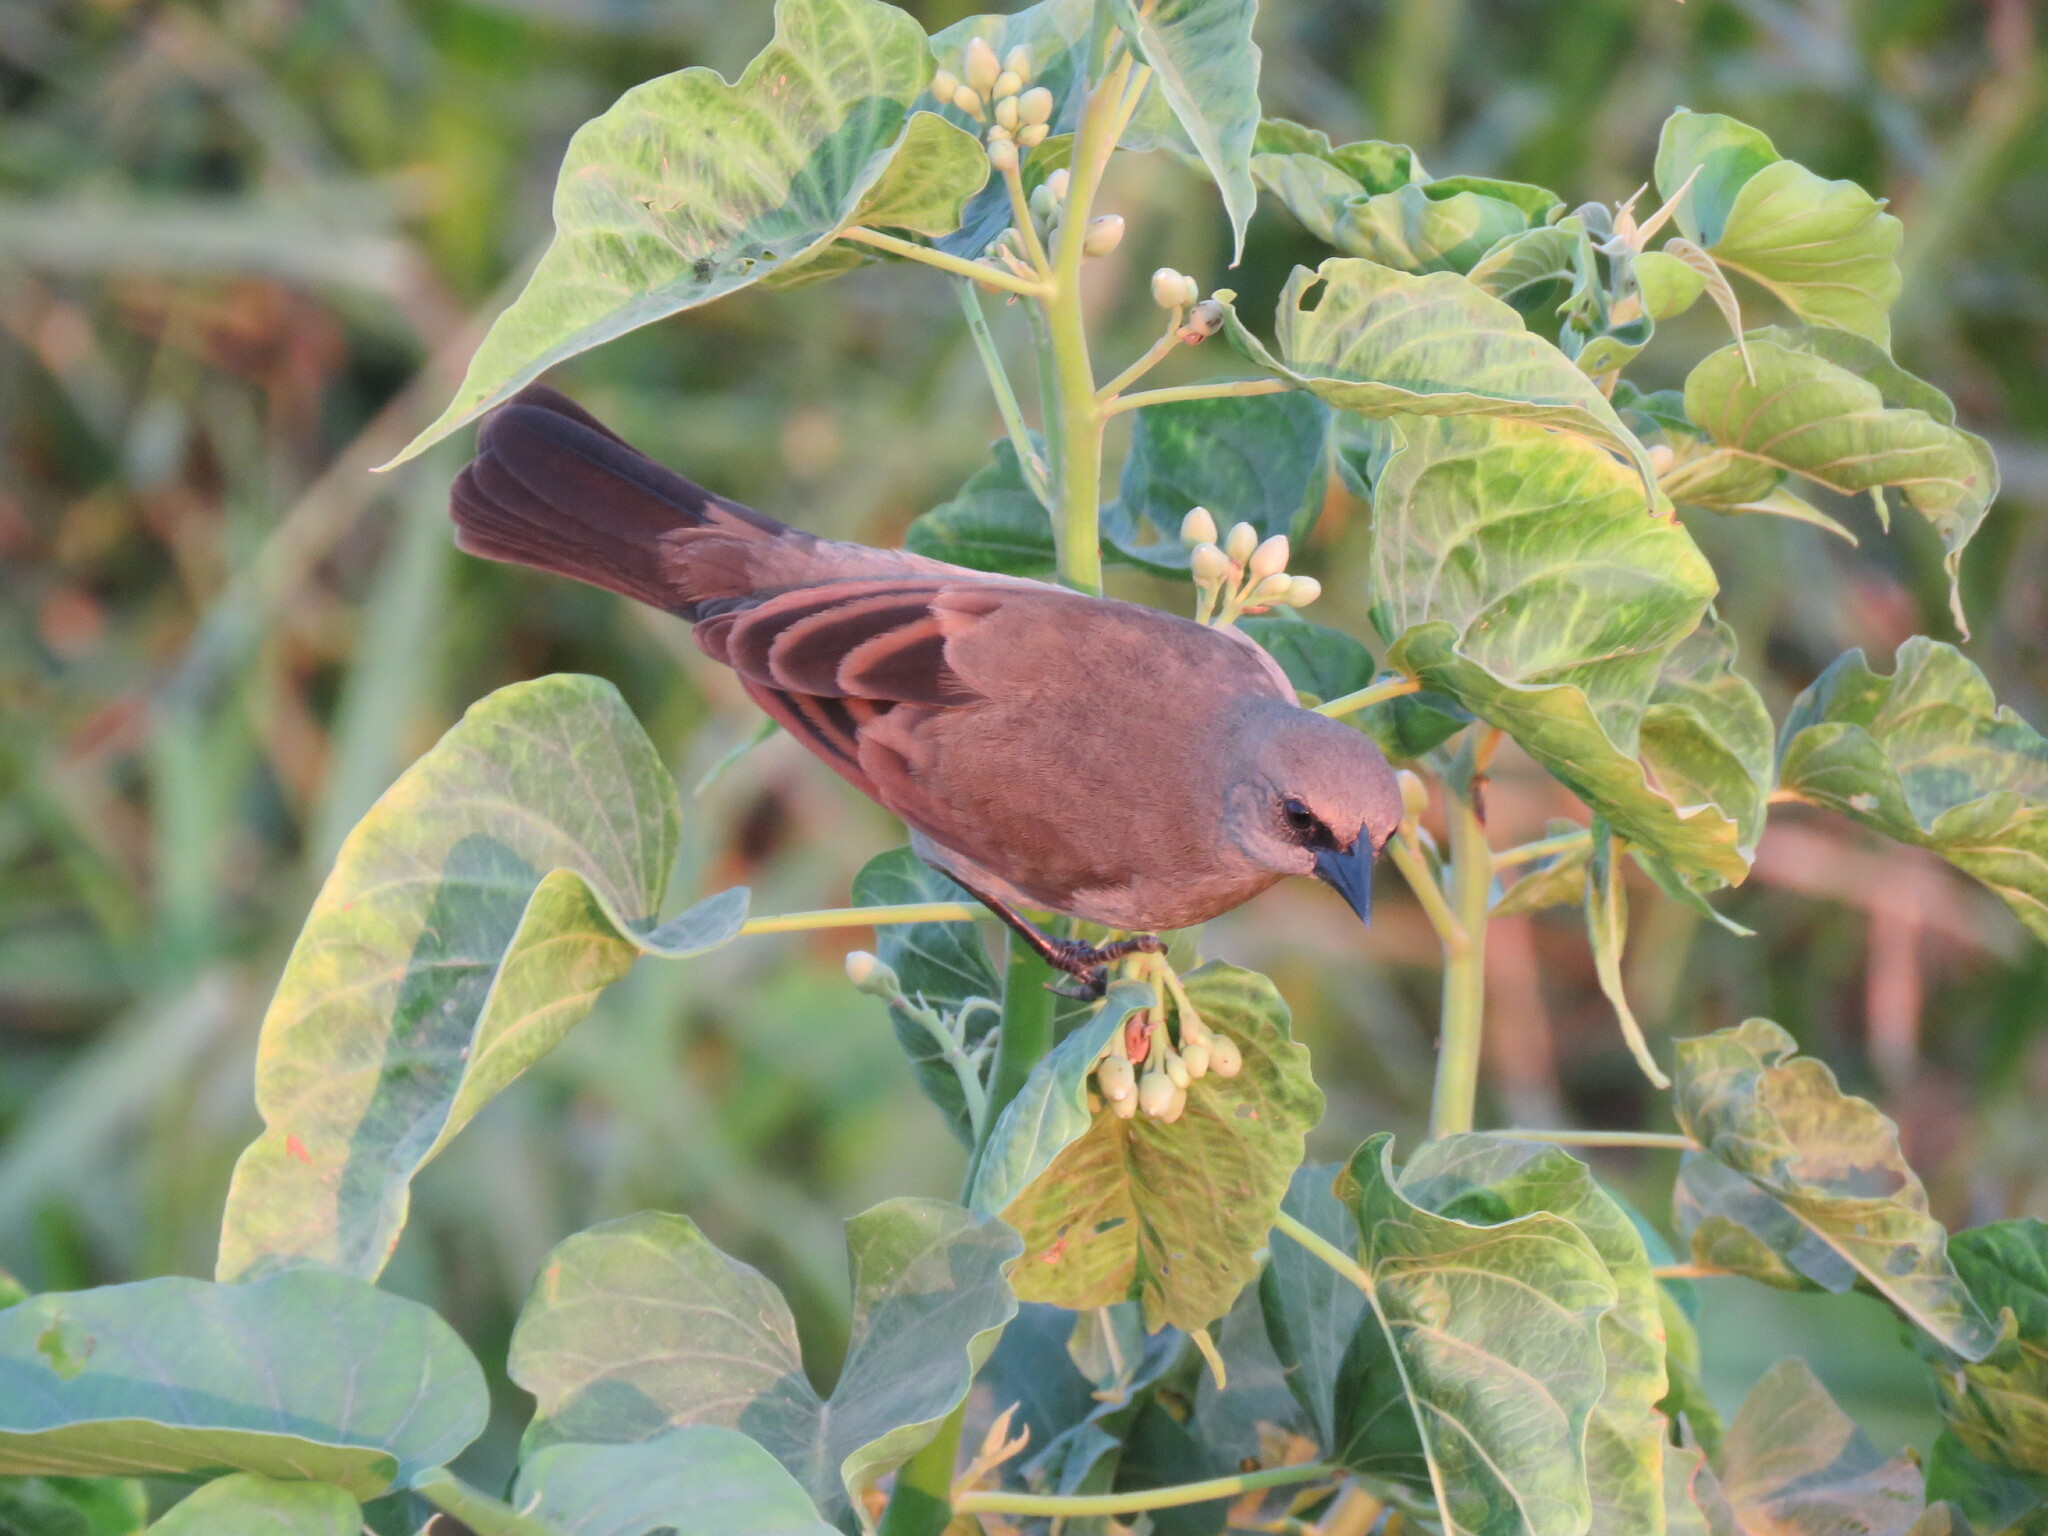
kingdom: Animalia
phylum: Chordata
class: Aves
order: Passeriformes
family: Icteridae
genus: Agelaioides
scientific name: Agelaioides badius
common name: Baywing
